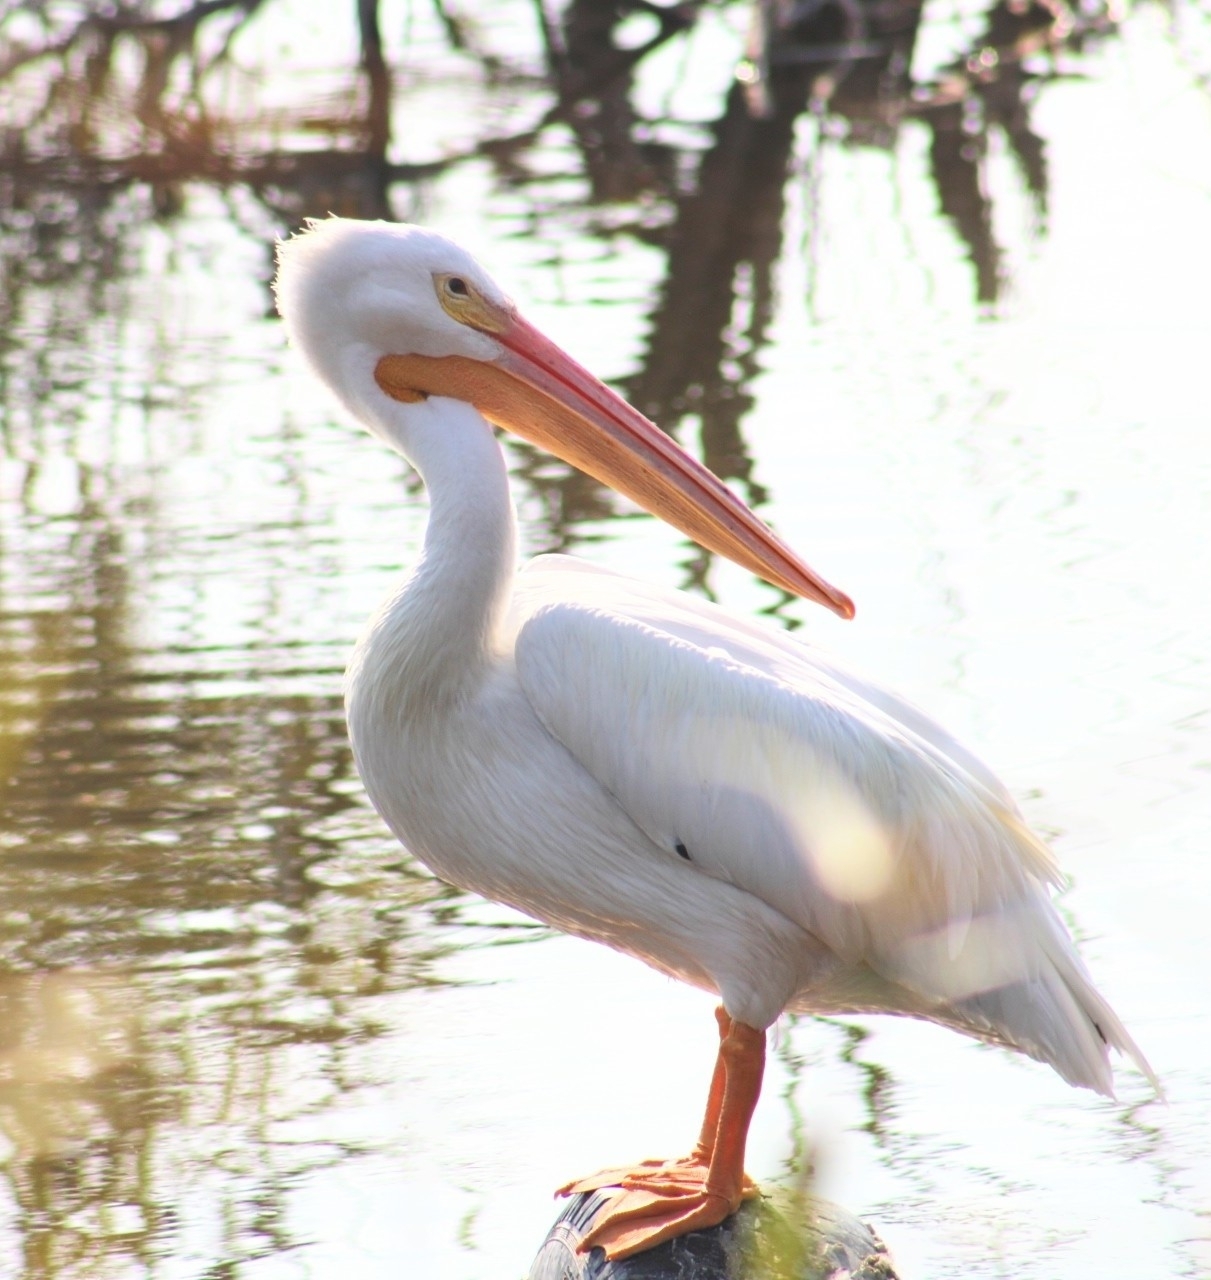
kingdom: Animalia
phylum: Chordata
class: Aves
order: Pelecaniformes
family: Pelecanidae
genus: Pelecanus
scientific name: Pelecanus erythrorhynchos
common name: American white pelican
